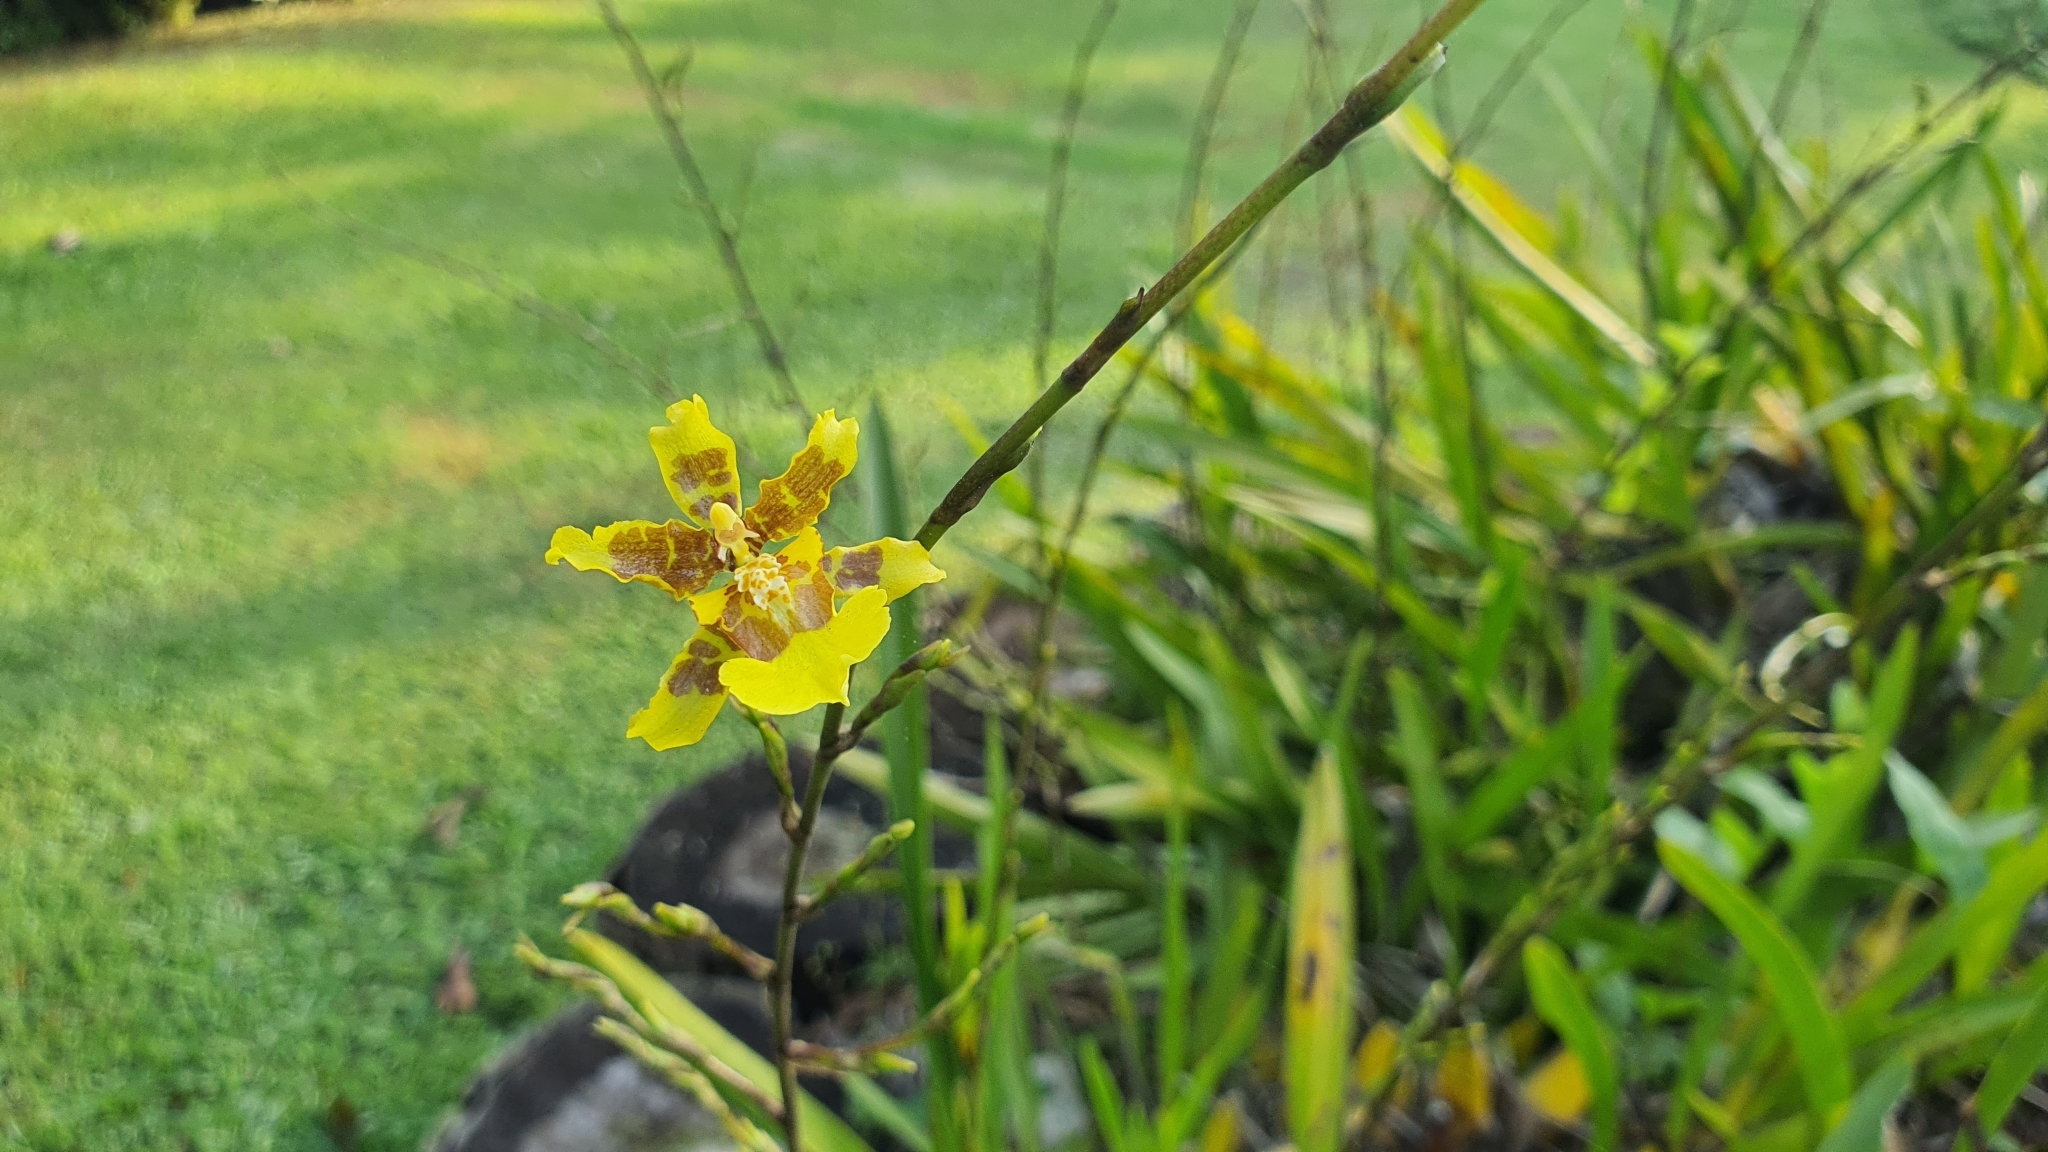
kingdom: Plantae
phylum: Tracheophyta
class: Liliopsida
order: Asparagales
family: Orchidaceae
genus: Oncidium
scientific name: Oncidium sphacelatum
